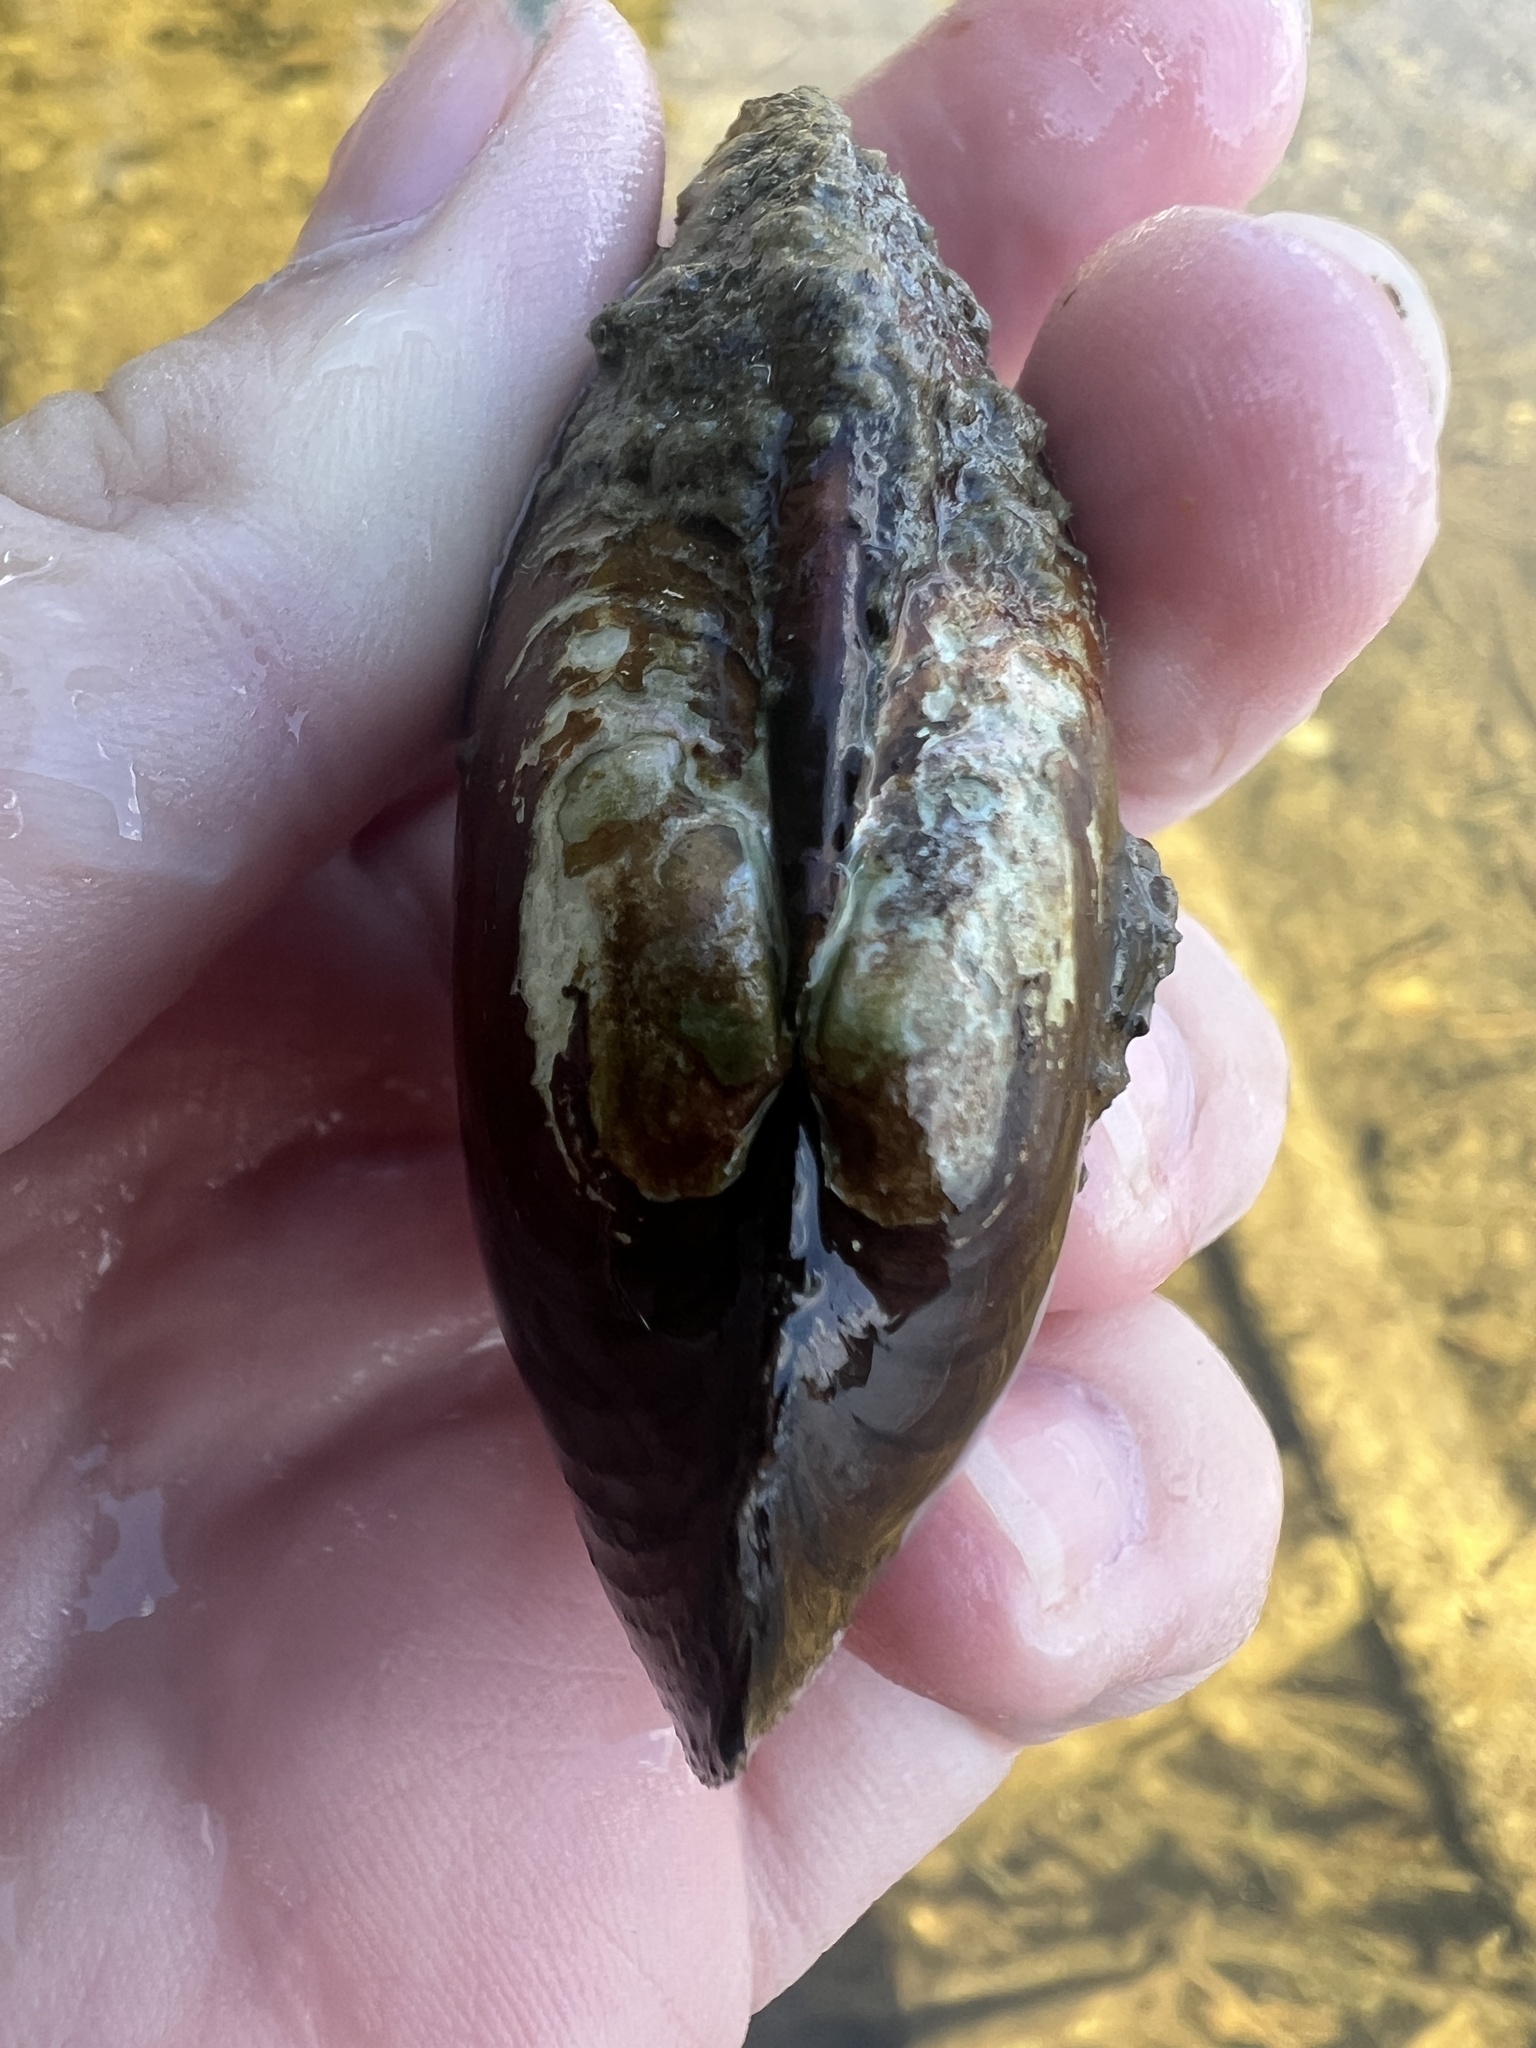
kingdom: Animalia
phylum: Mollusca
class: Bivalvia
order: Unionida
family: Unionidae
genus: Lampsilis
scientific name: Lampsilis siliquoidea
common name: Fatmucket
